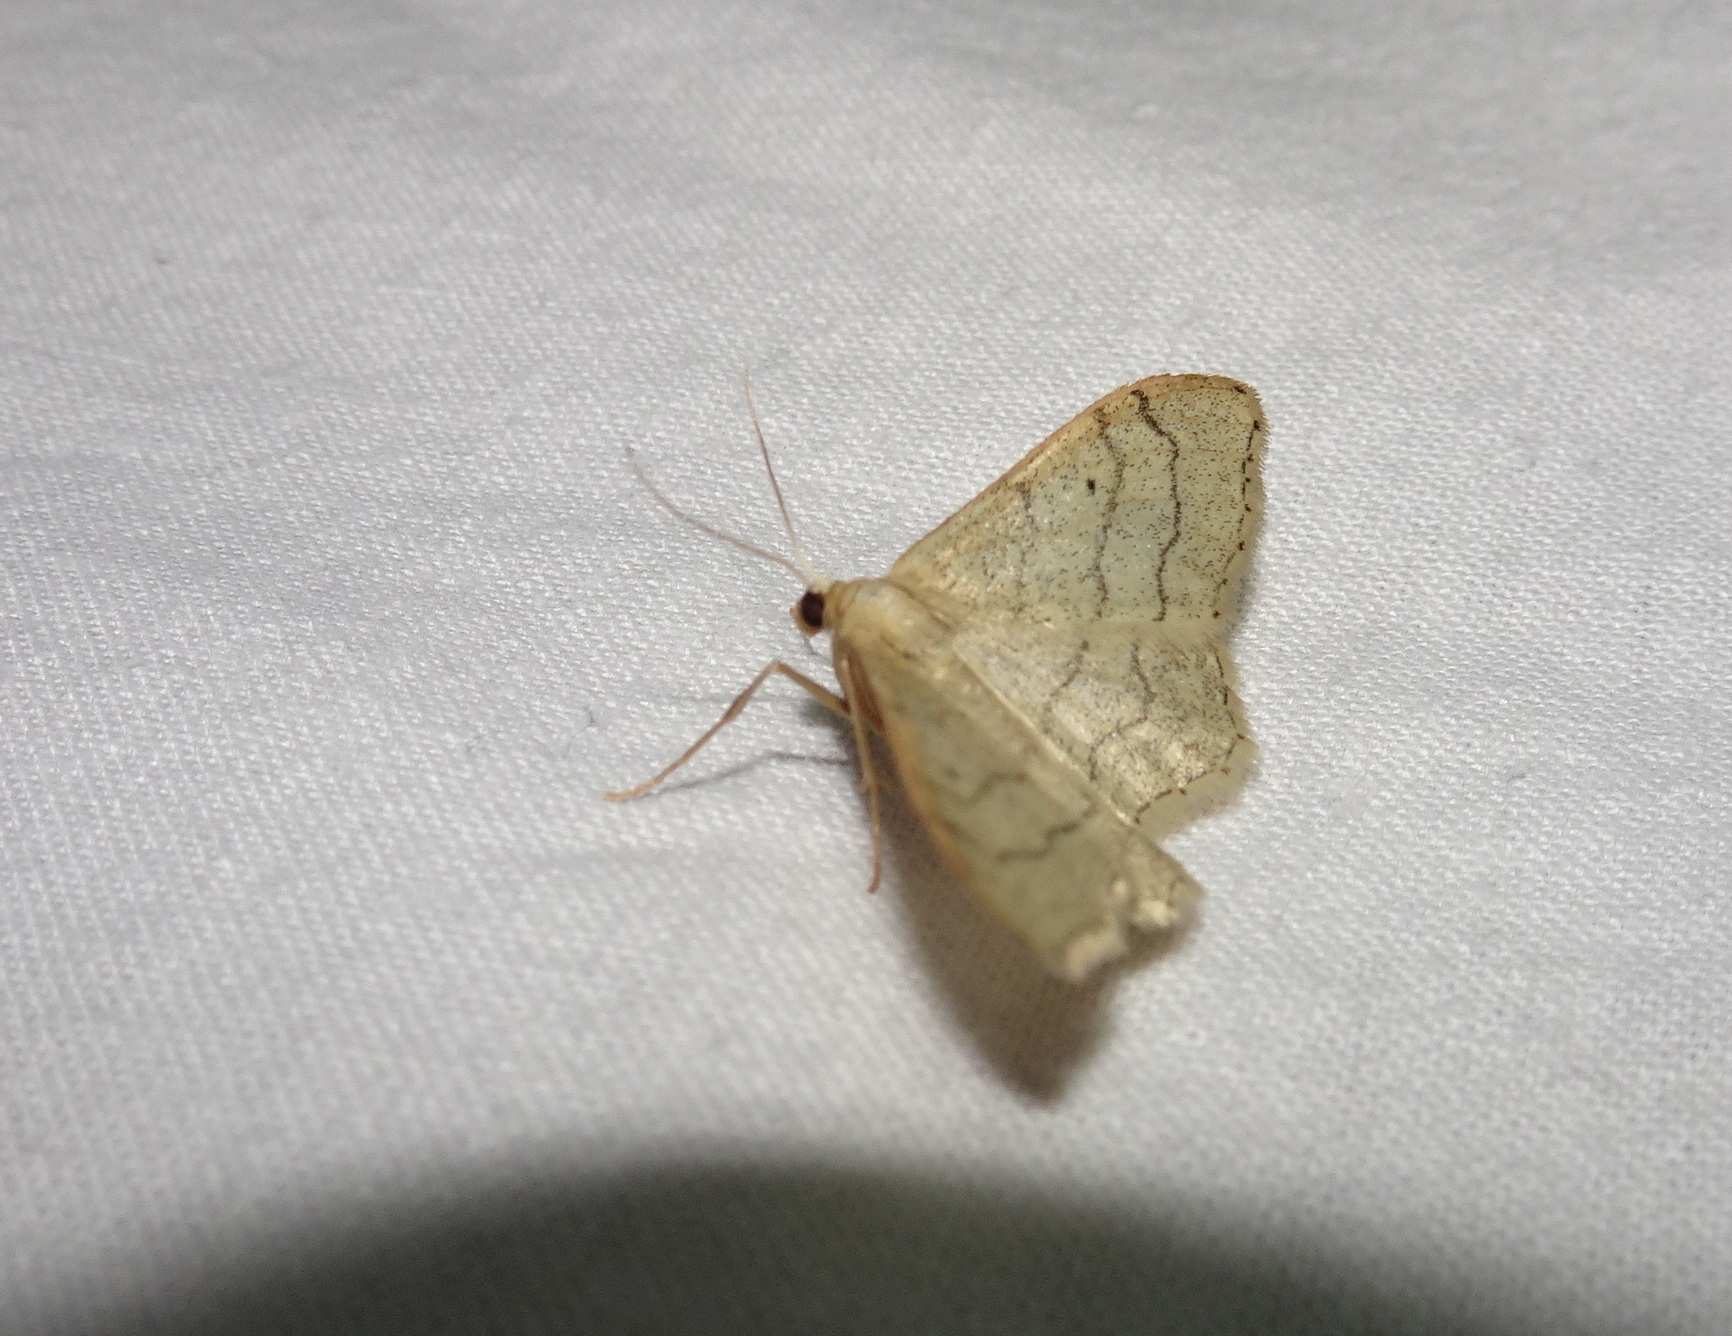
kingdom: Animalia
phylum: Arthropoda
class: Insecta
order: Lepidoptera
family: Geometridae
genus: Idaea
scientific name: Idaea aversata
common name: Riband wave
